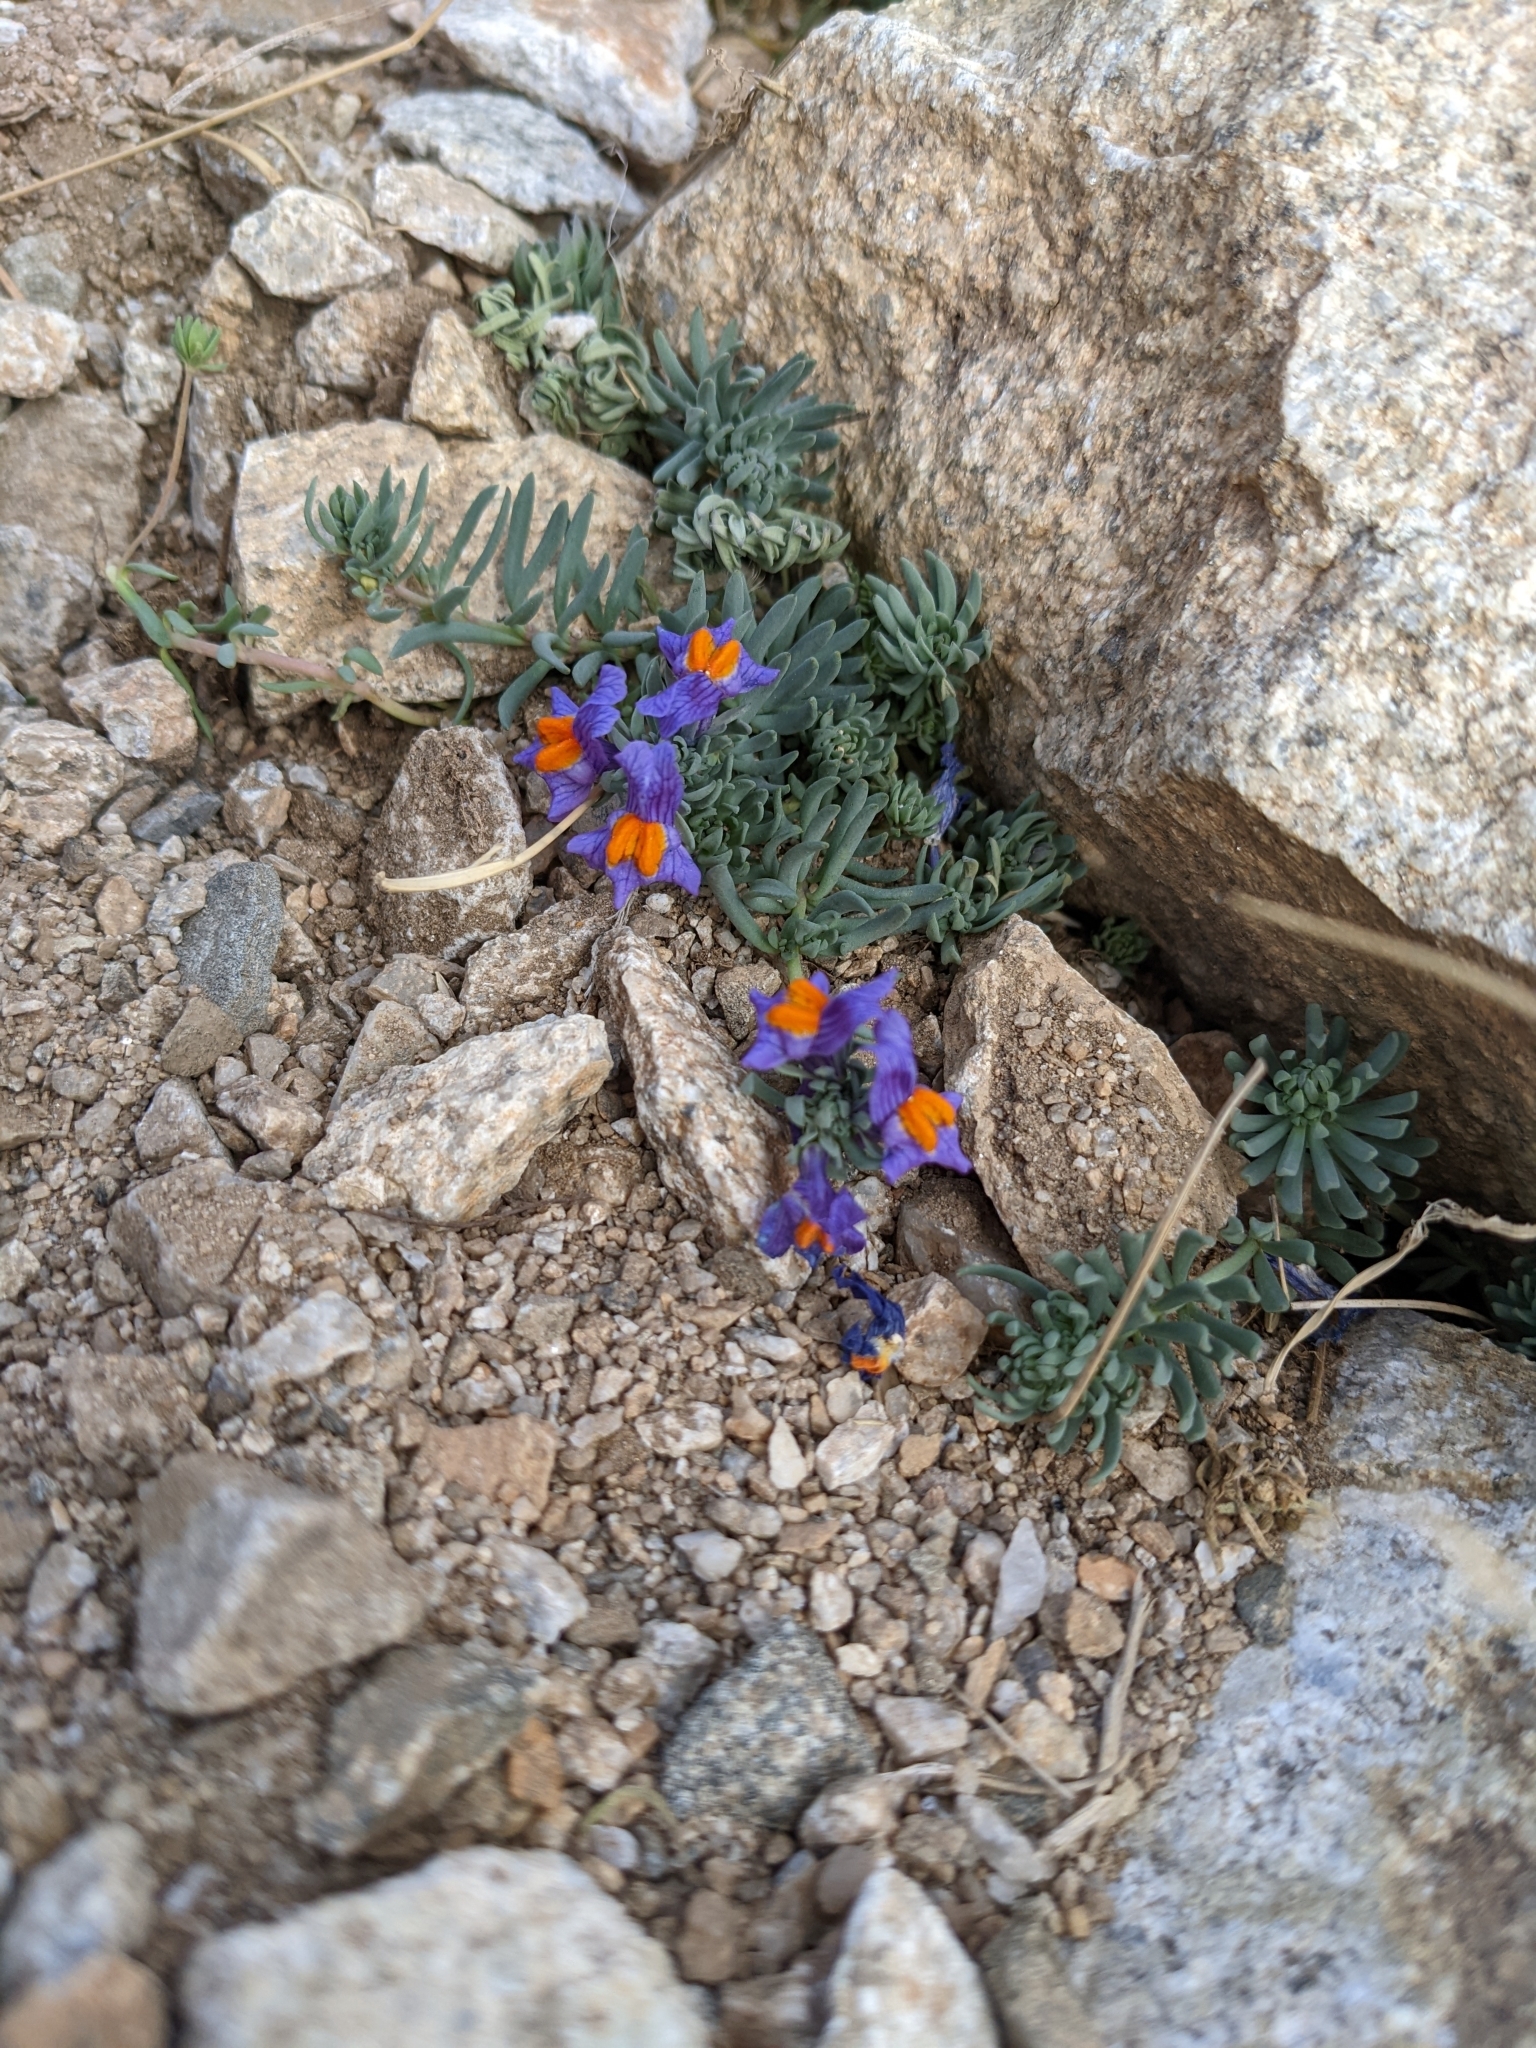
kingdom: Plantae
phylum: Tracheophyta
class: Magnoliopsida
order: Lamiales
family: Plantaginaceae
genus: Linaria
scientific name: Linaria alpina
